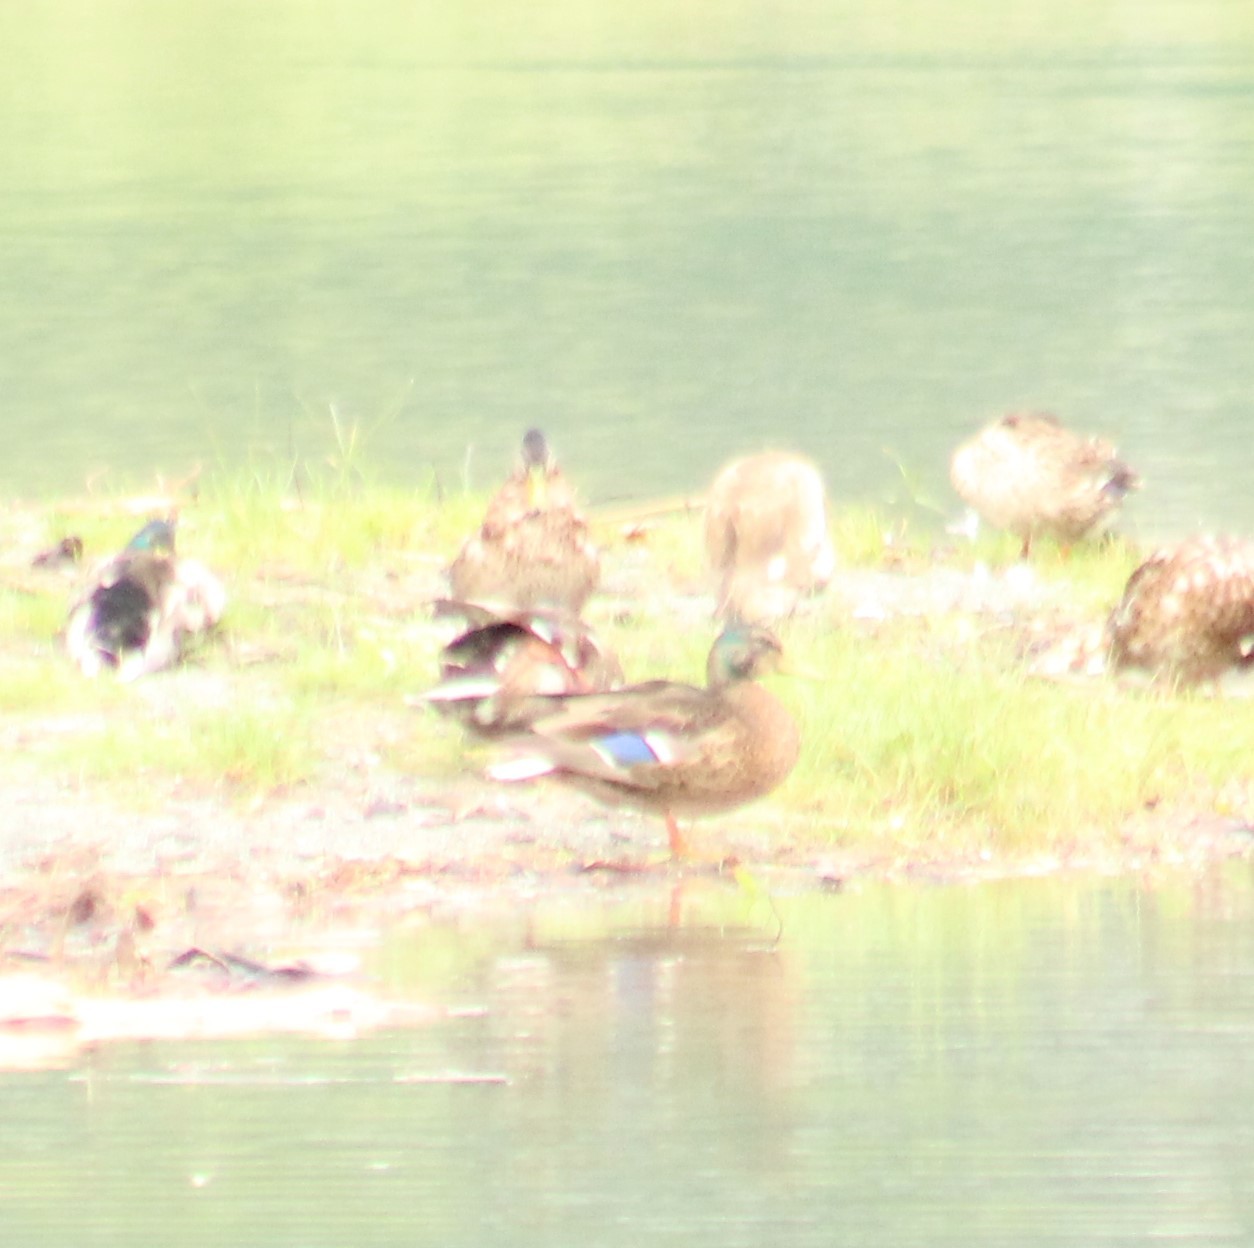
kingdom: Animalia
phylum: Chordata
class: Aves
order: Anseriformes
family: Anatidae
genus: Anas
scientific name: Anas platyrhynchos
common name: Mallard
